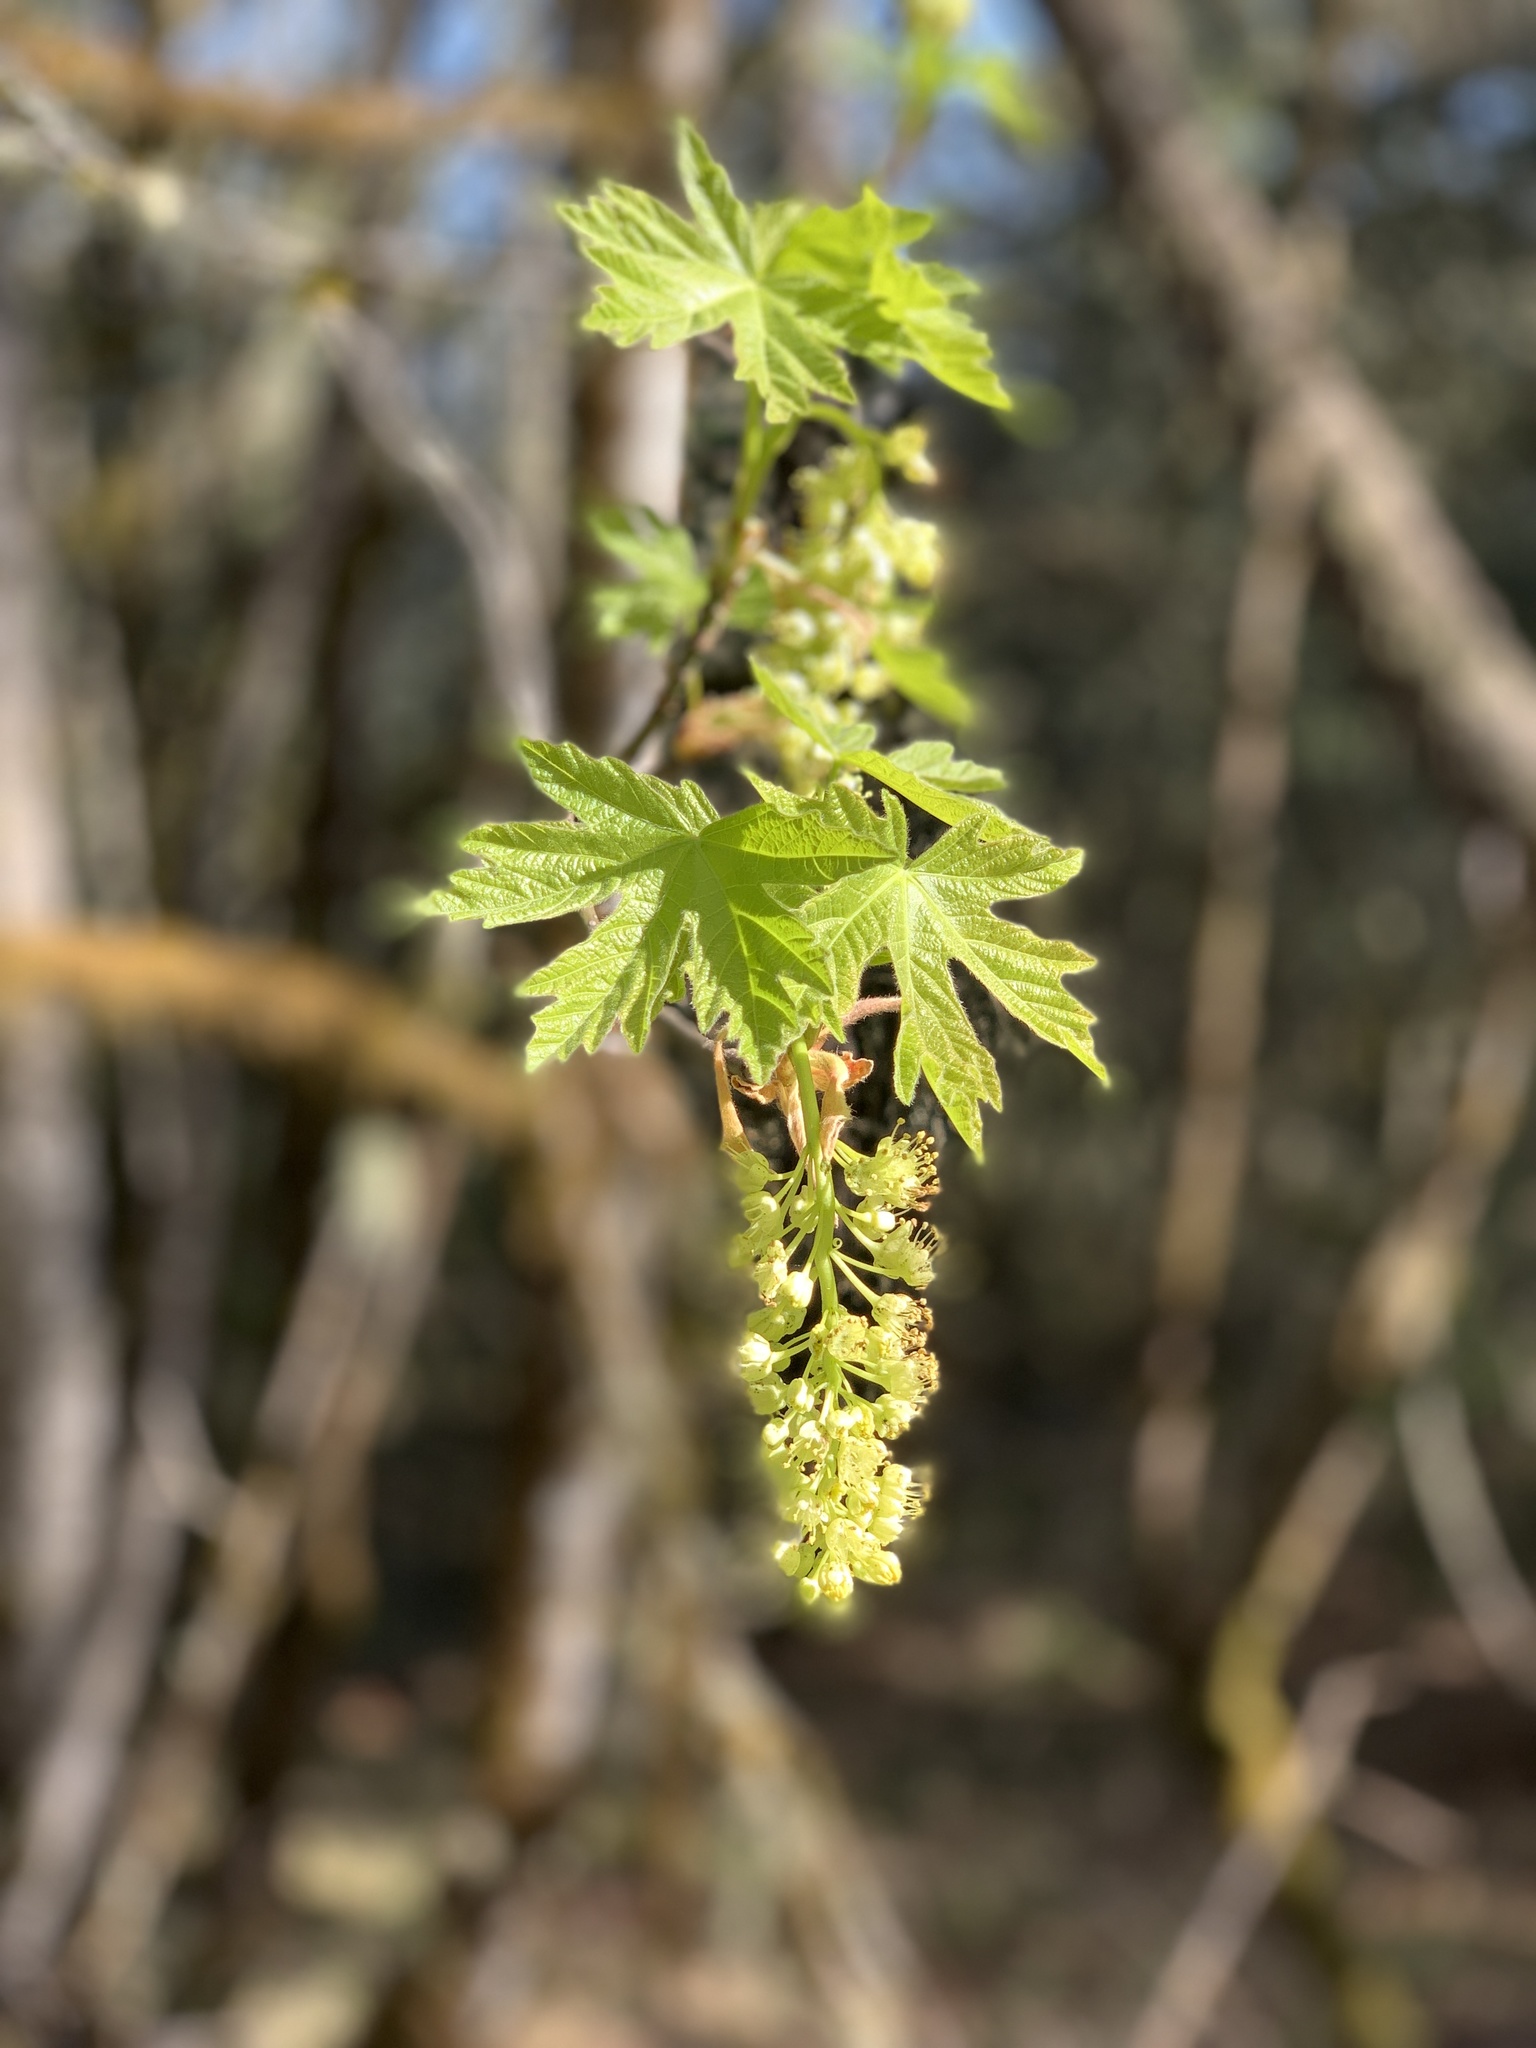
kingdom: Plantae
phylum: Tracheophyta
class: Magnoliopsida
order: Sapindales
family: Sapindaceae
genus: Acer
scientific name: Acer macrophyllum
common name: Oregon maple
